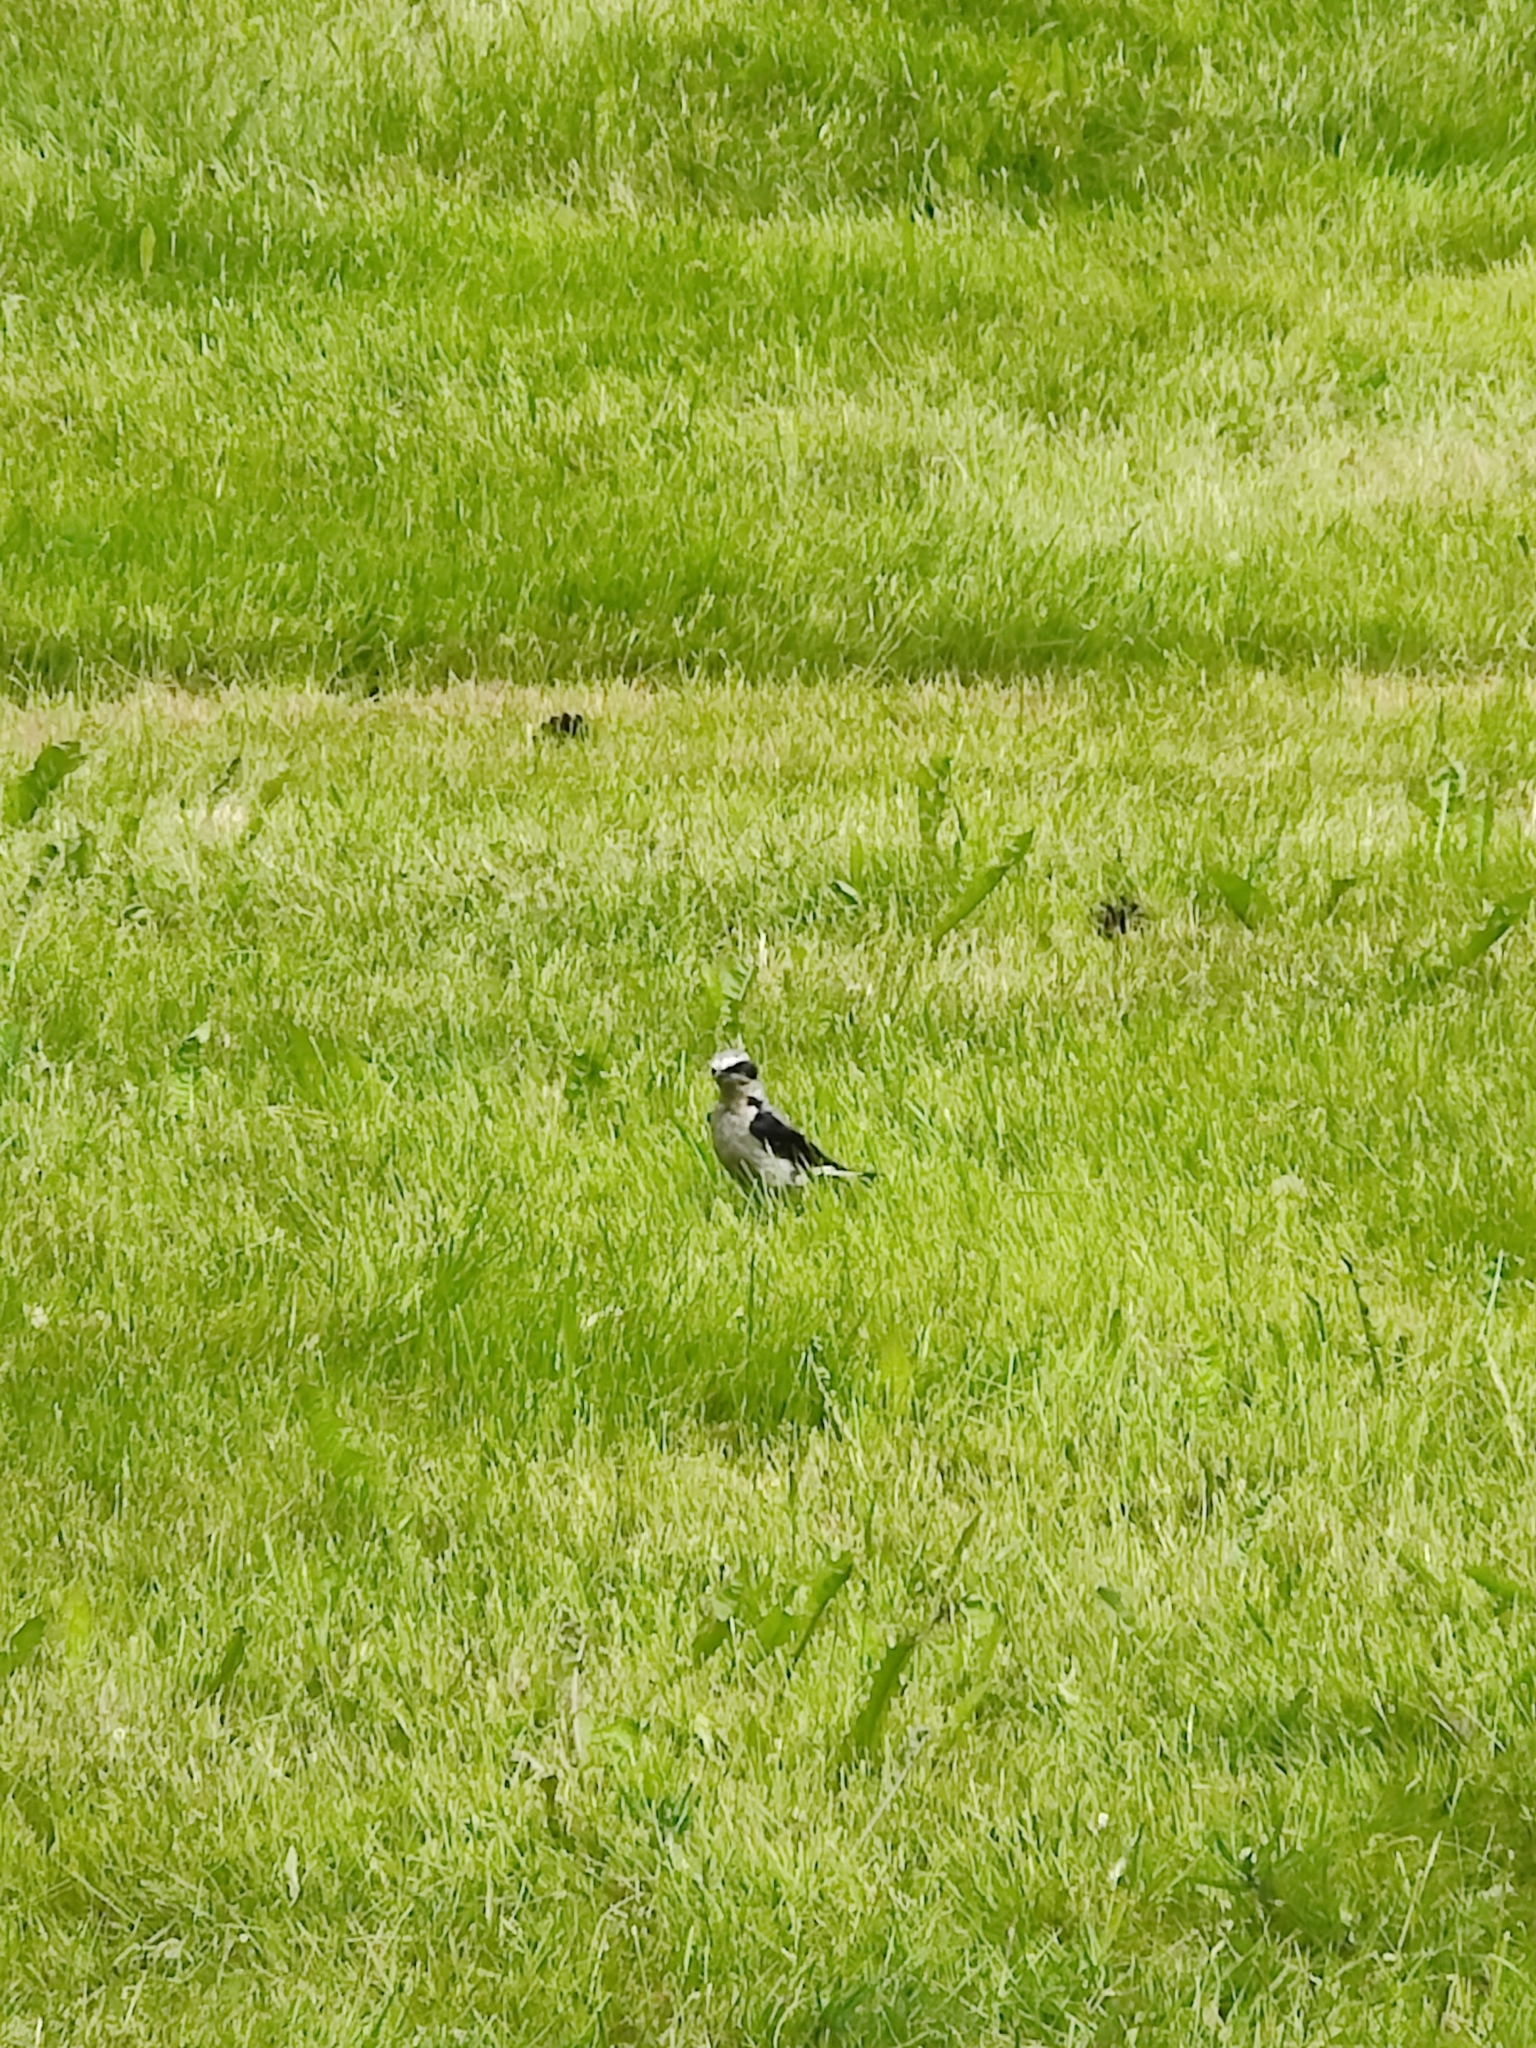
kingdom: Animalia
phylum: Chordata
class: Aves
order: Passeriformes
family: Muscicapidae
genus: Oenanthe
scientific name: Oenanthe oenanthe
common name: Northern wheatear
